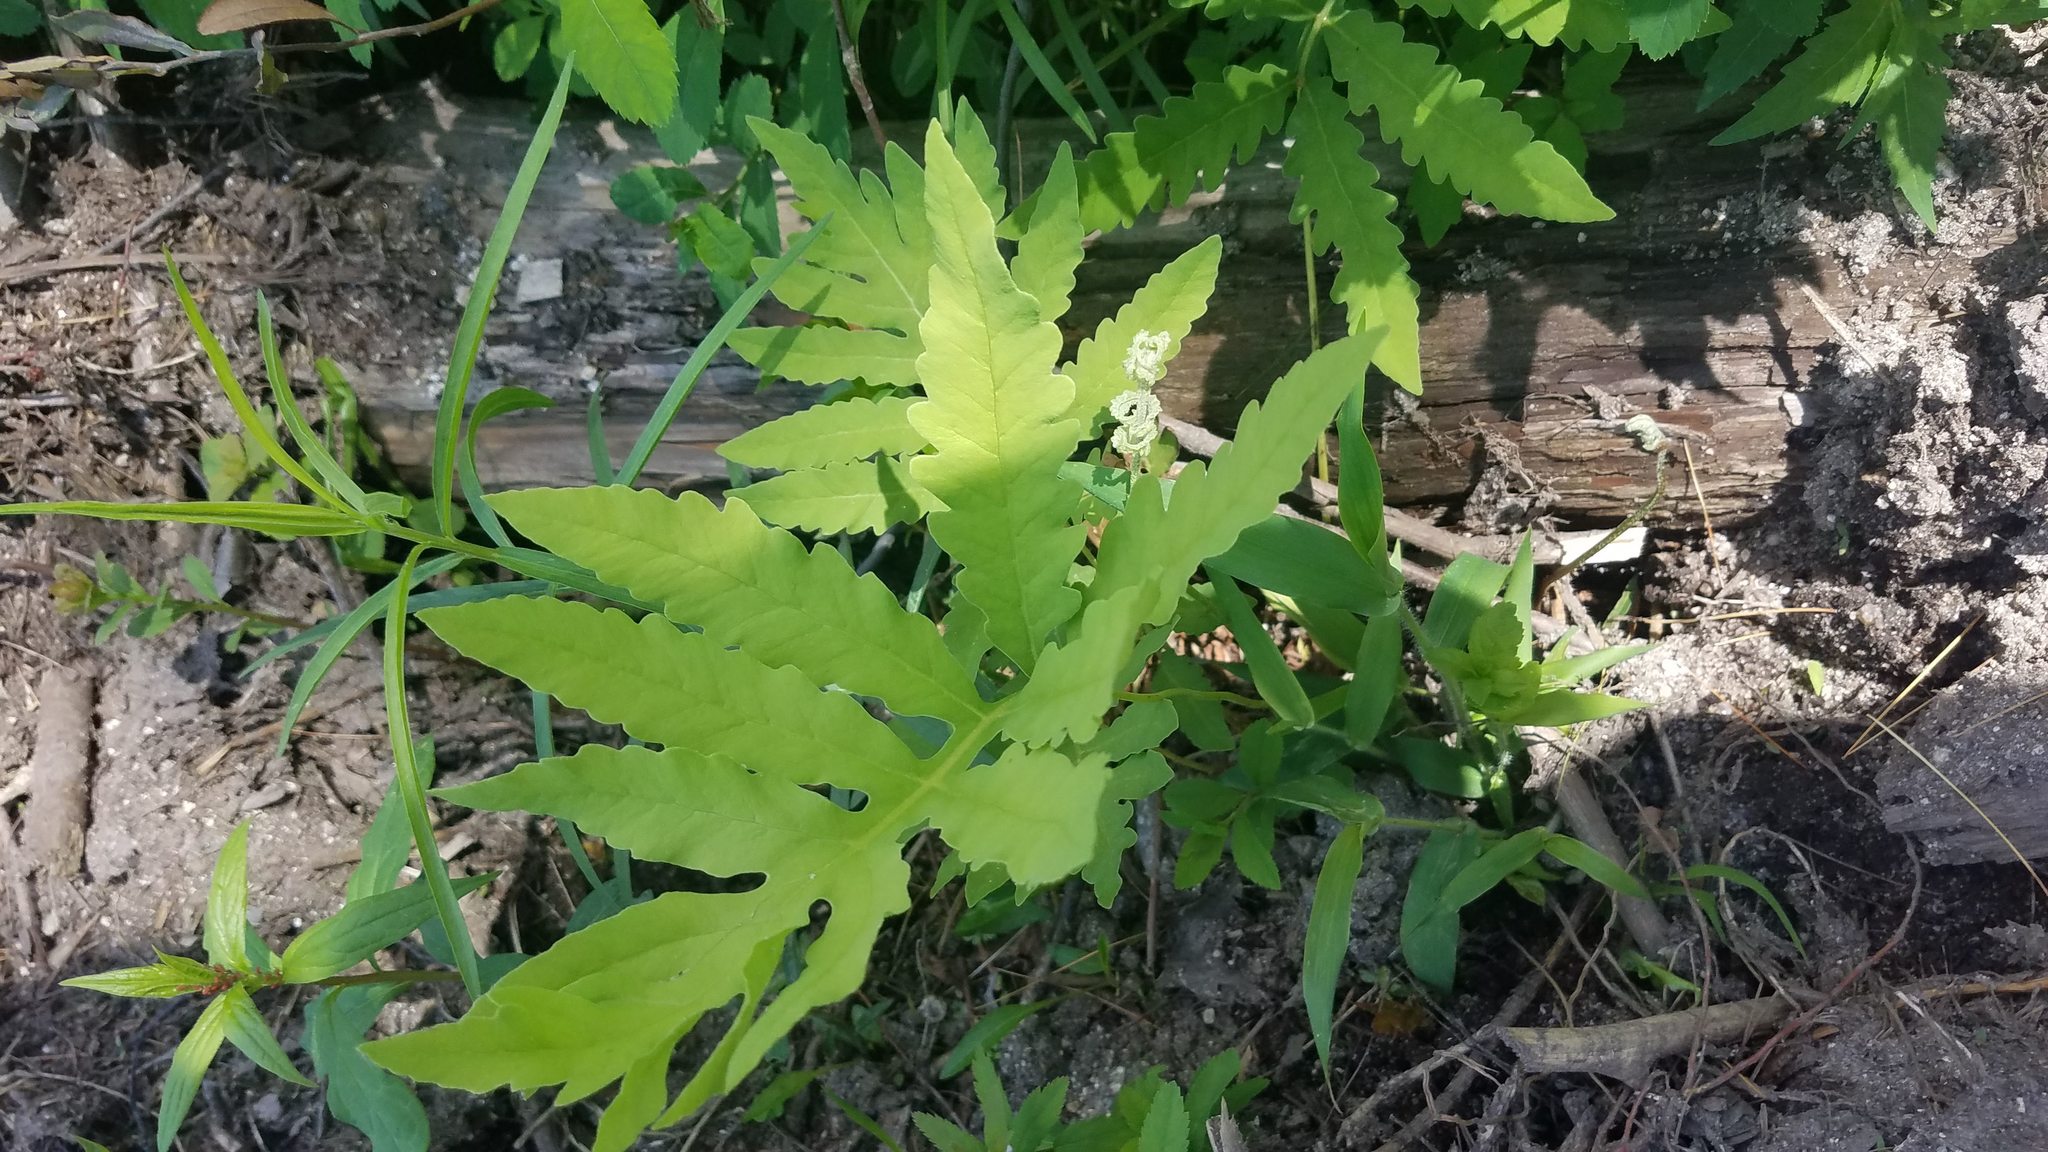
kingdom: Plantae
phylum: Tracheophyta
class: Polypodiopsida
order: Polypodiales
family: Onocleaceae
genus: Onoclea
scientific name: Onoclea sensibilis
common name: Sensitive fern
